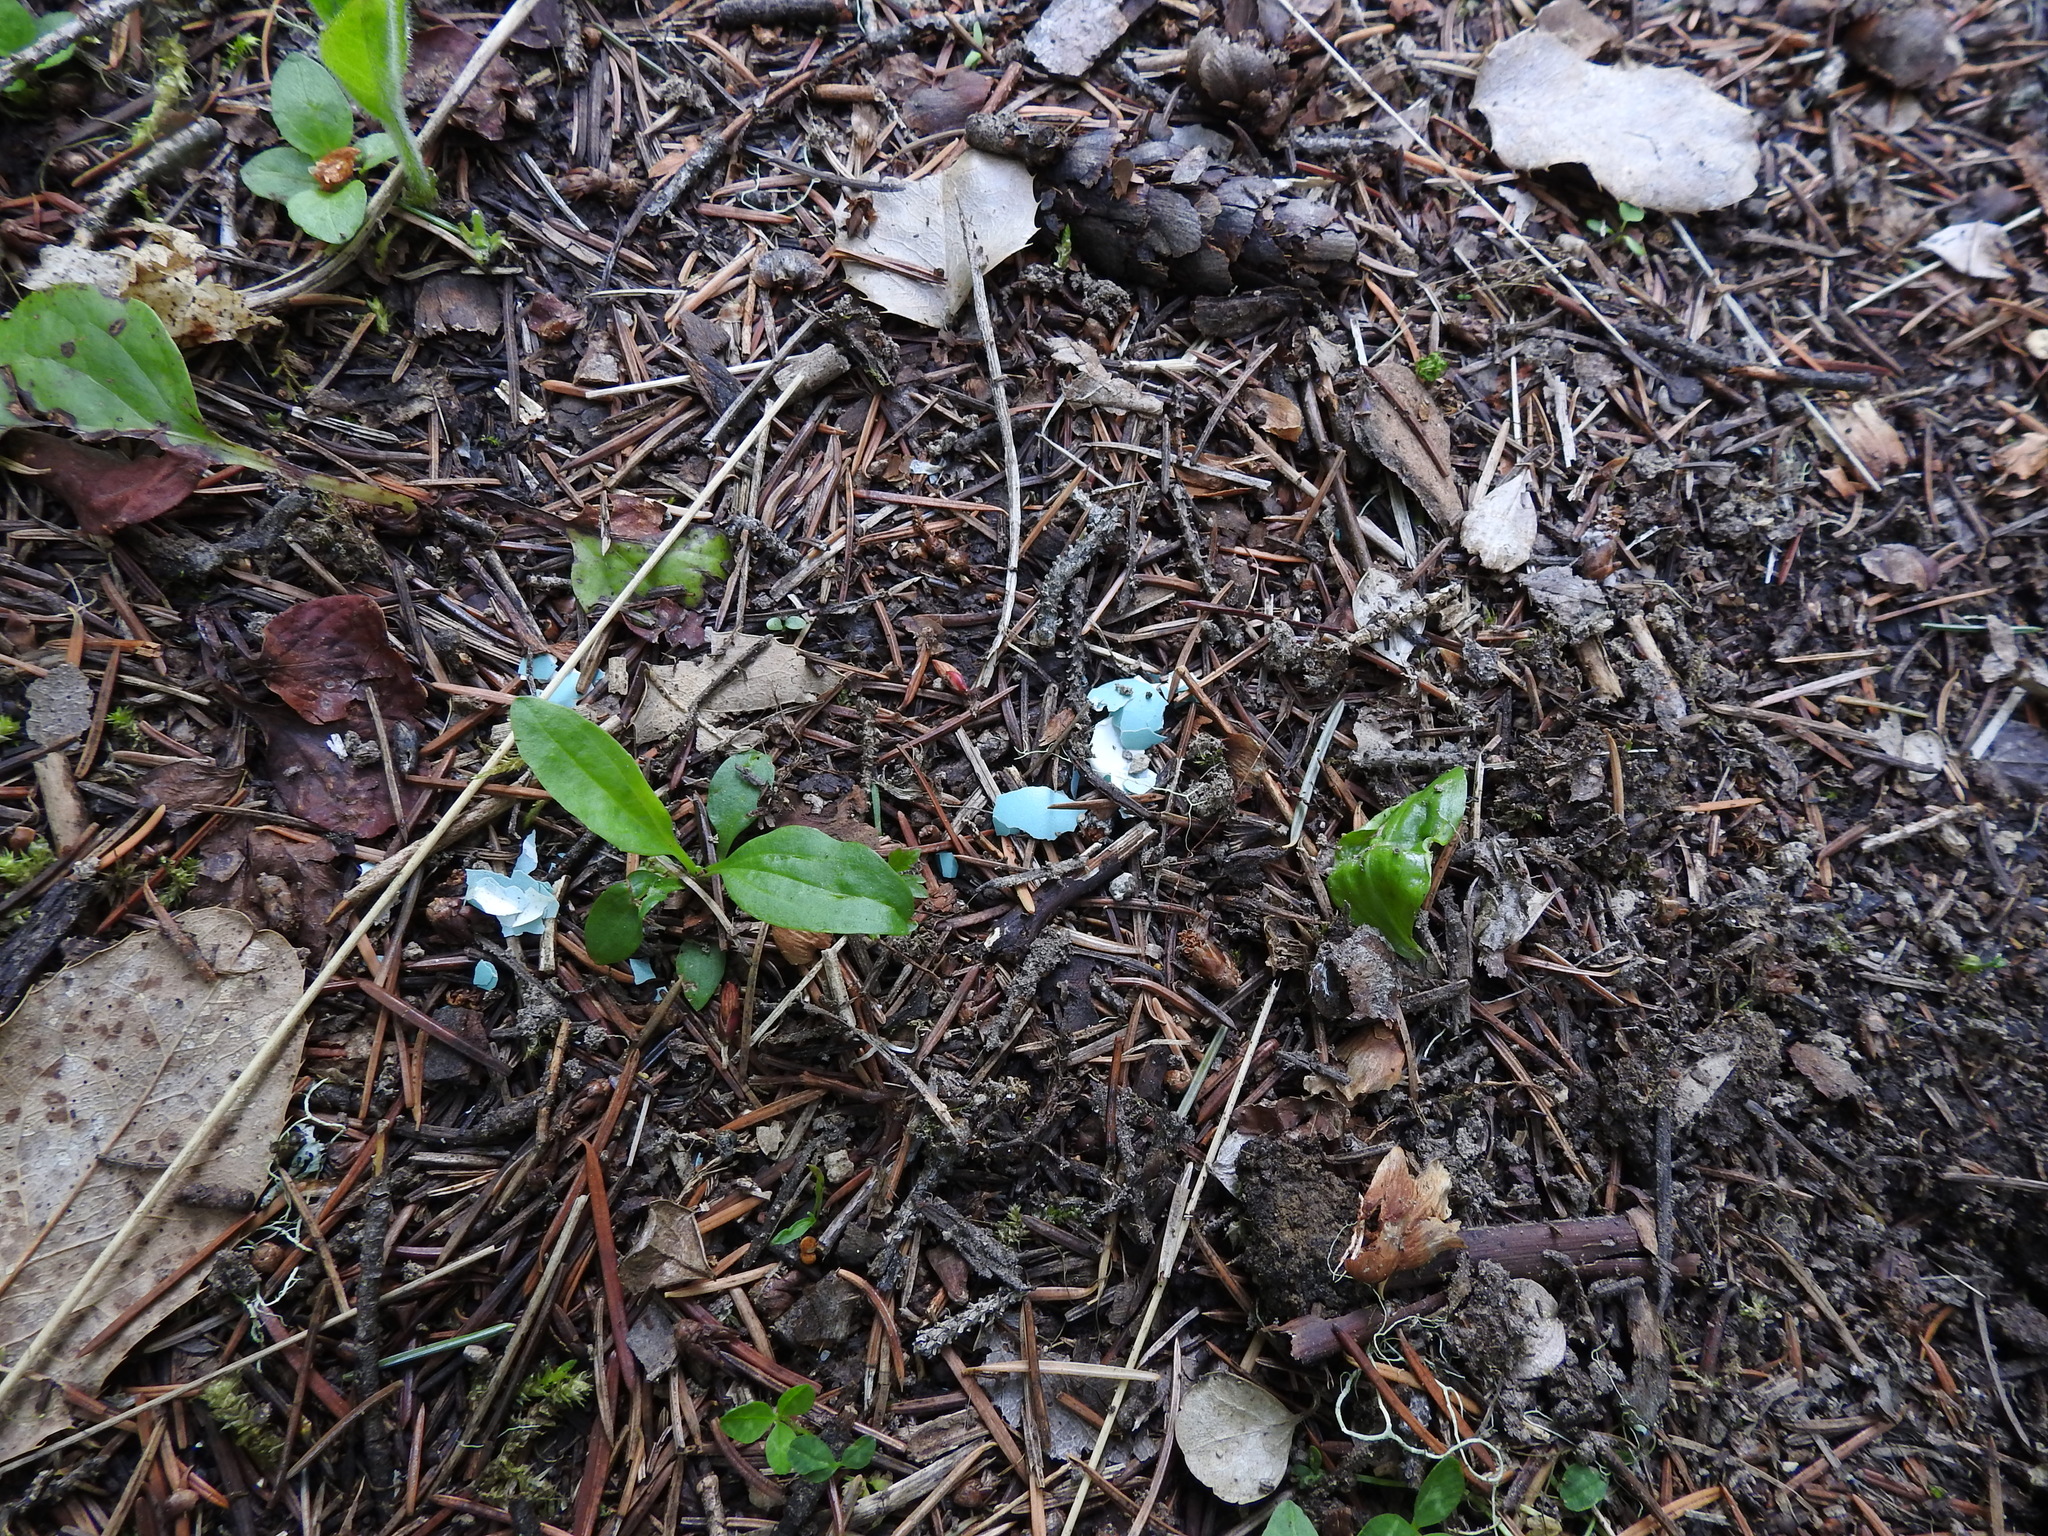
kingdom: Animalia
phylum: Chordata
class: Aves
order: Passeriformes
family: Turdidae
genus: Turdus
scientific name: Turdus migratorius
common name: American robin
